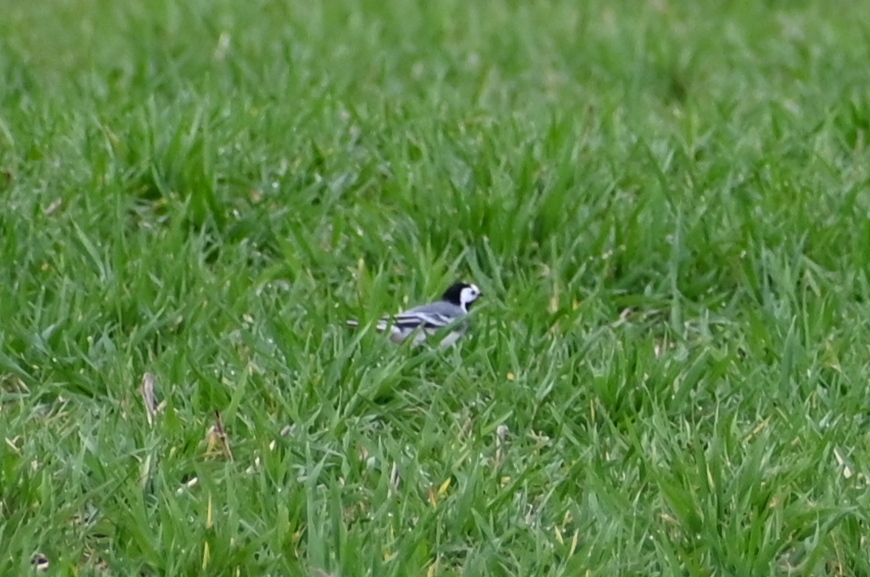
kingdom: Animalia
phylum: Chordata
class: Aves
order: Passeriformes
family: Motacillidae
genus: Motacilla
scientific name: Motacilla alba
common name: White wagtail
